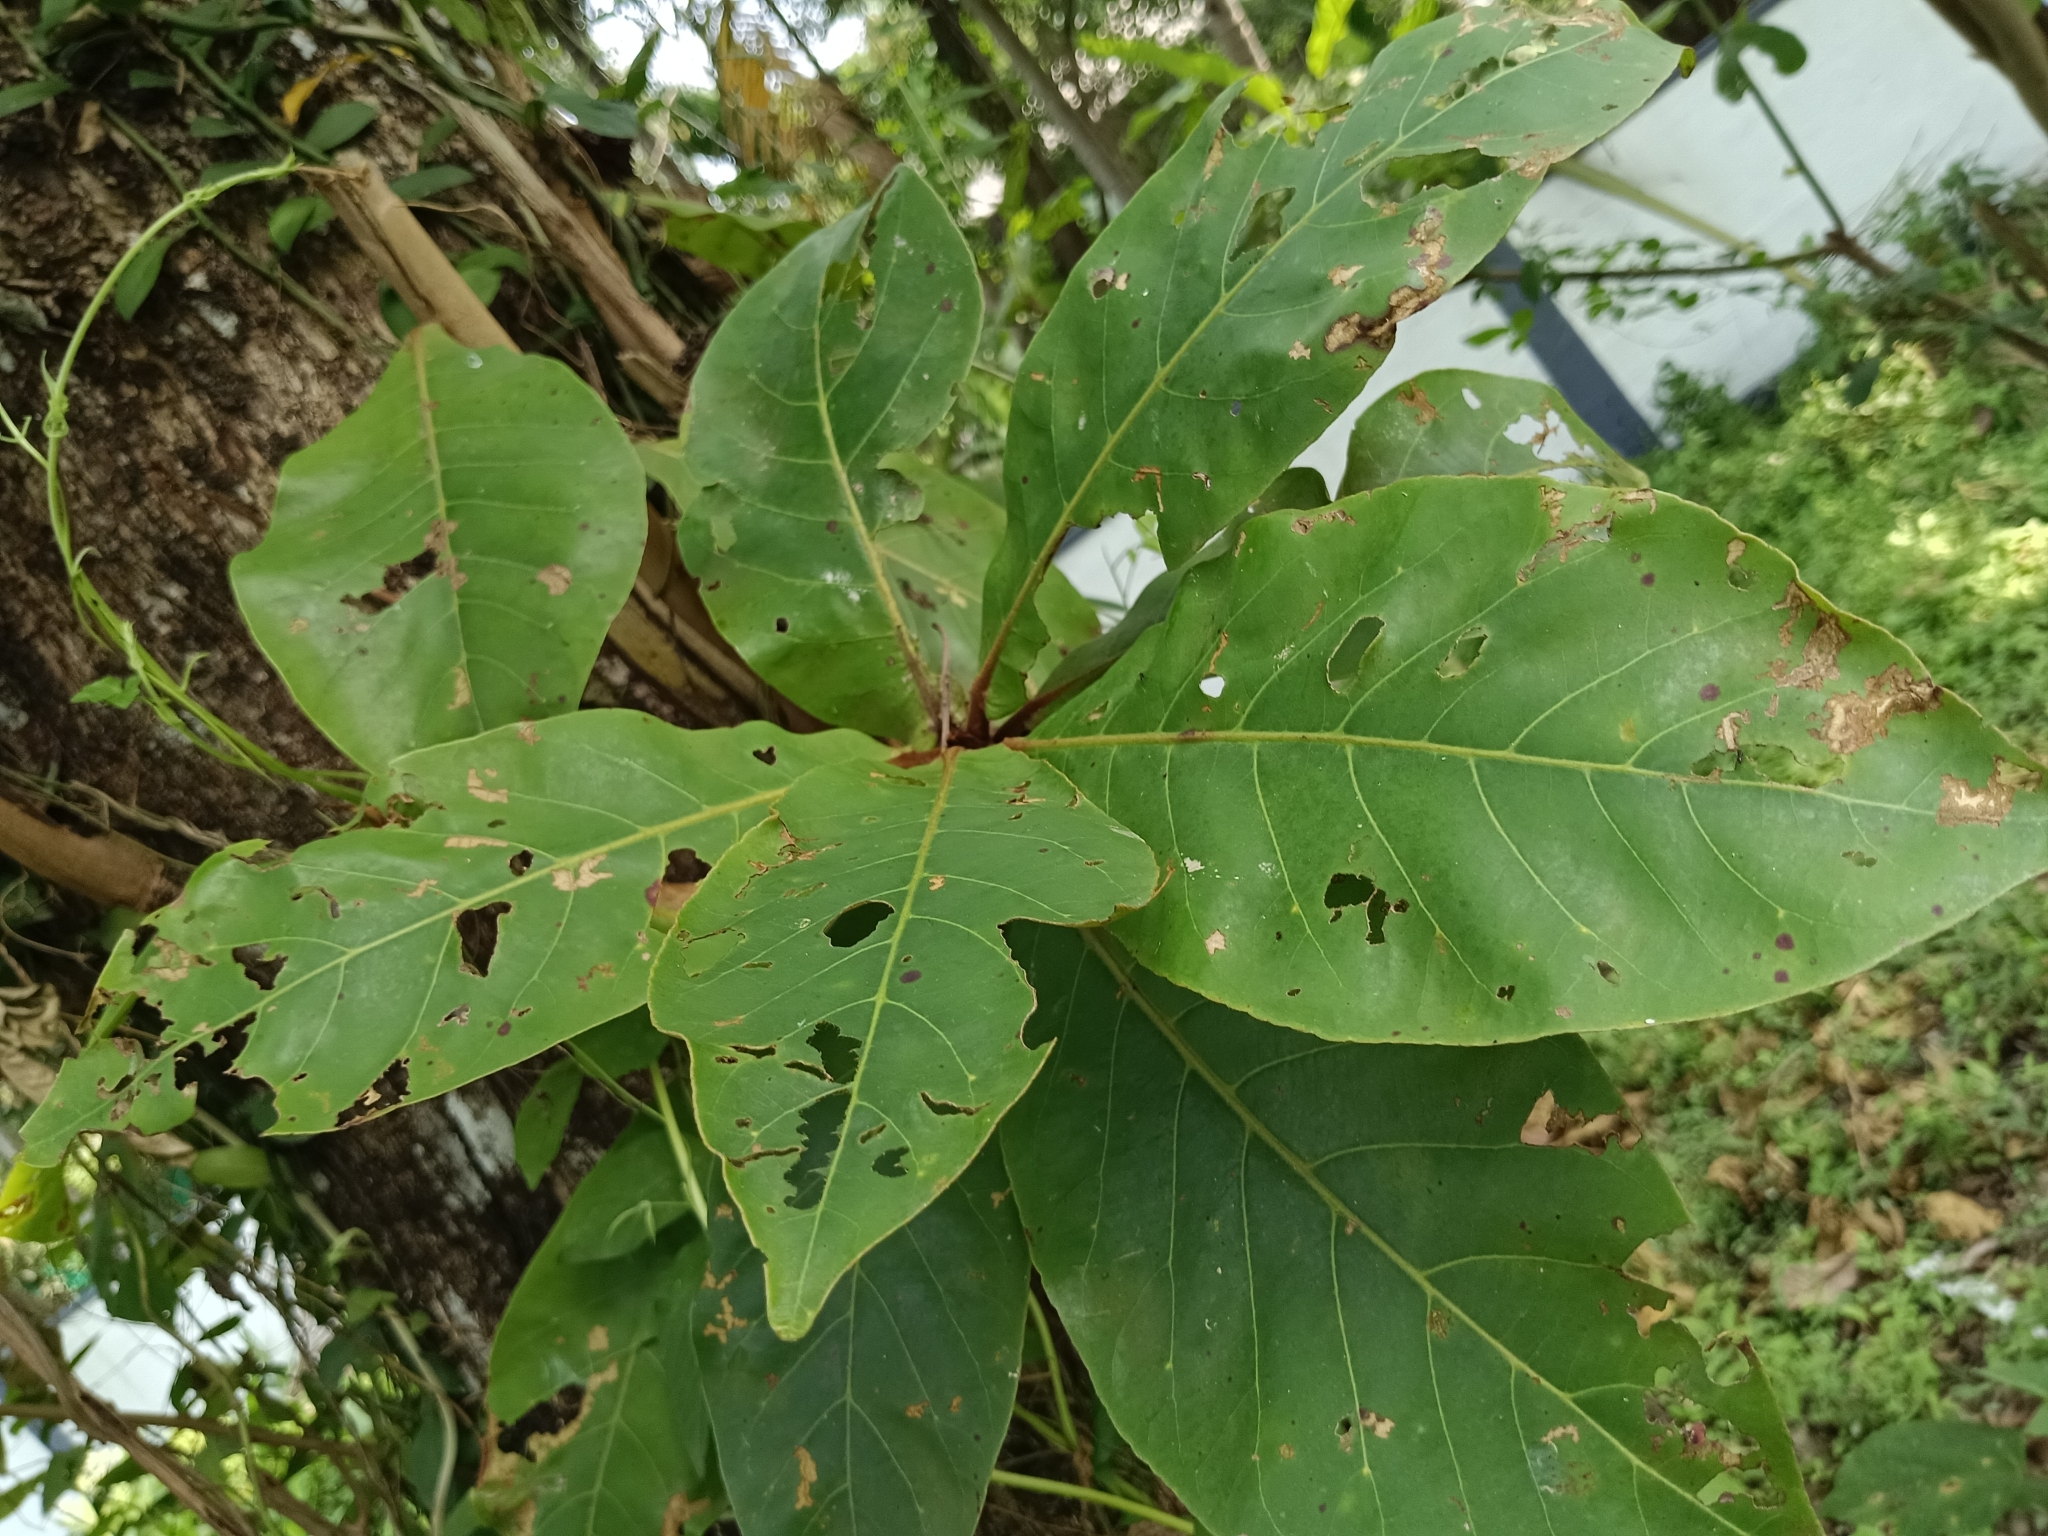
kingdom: Plantae
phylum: Tracheophyta
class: Magnoliopsida
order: Myrtales
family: Combretaceae
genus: Terminalia
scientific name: Terminalia catappa
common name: Tropical almond
